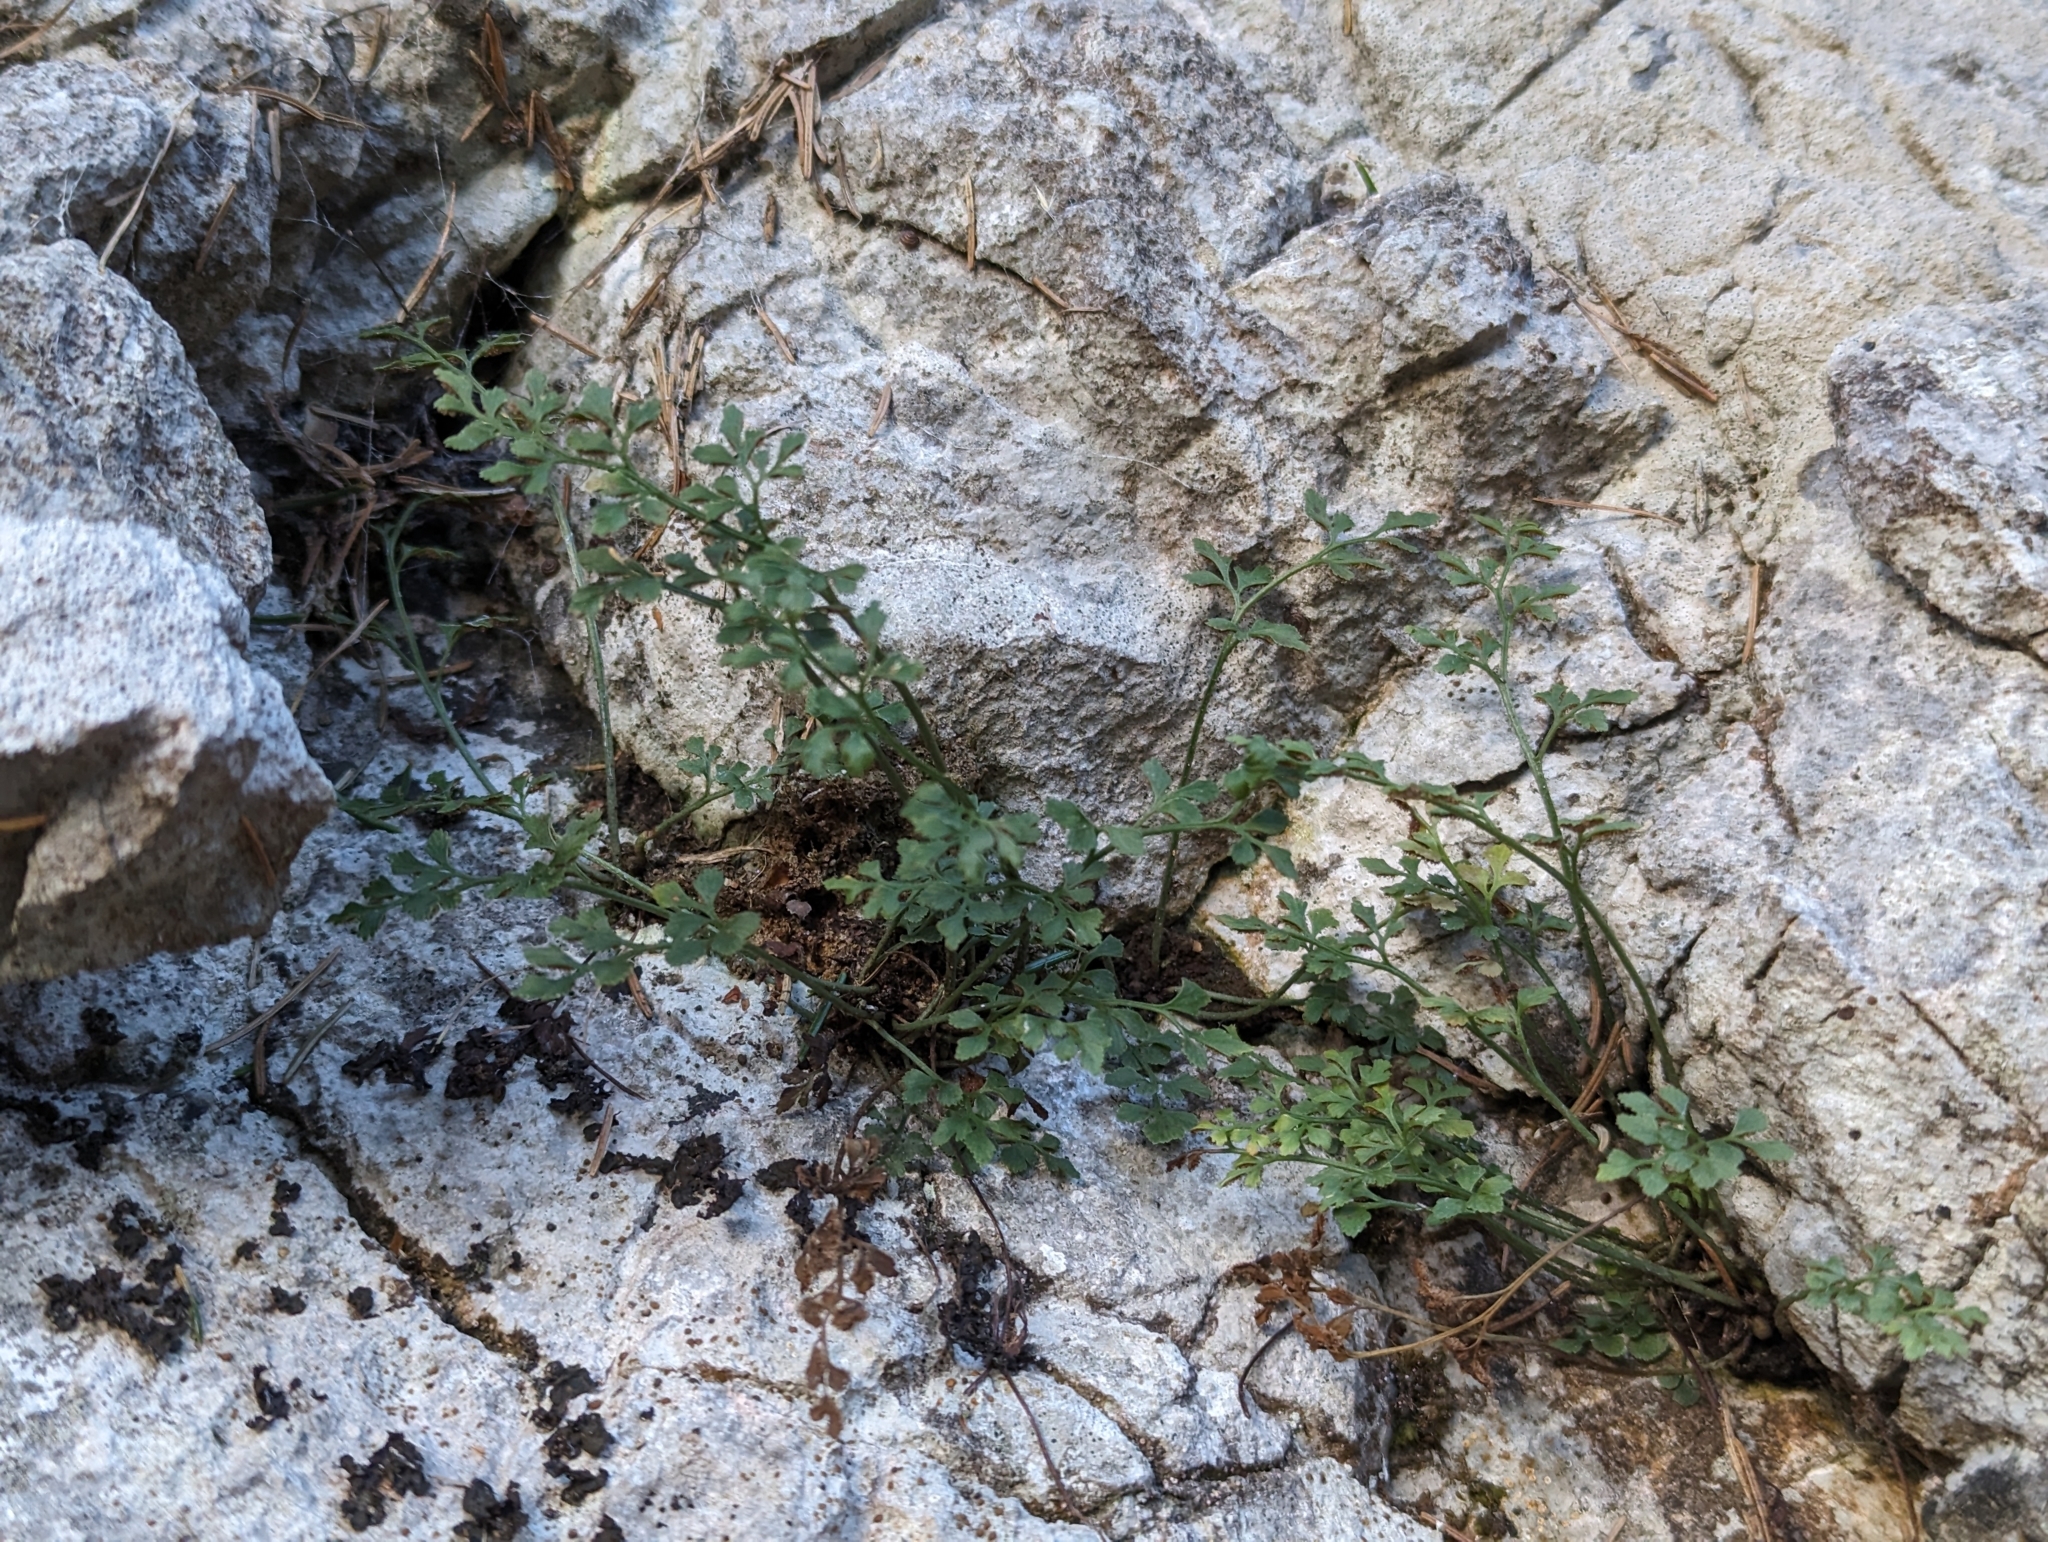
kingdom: Plantae
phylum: Tracheophyta
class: Polypodiopsida
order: Polypodiales
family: Aspleniaceae
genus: Asplenium
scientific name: Asplenium ruta-muraria
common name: Wall-rue
